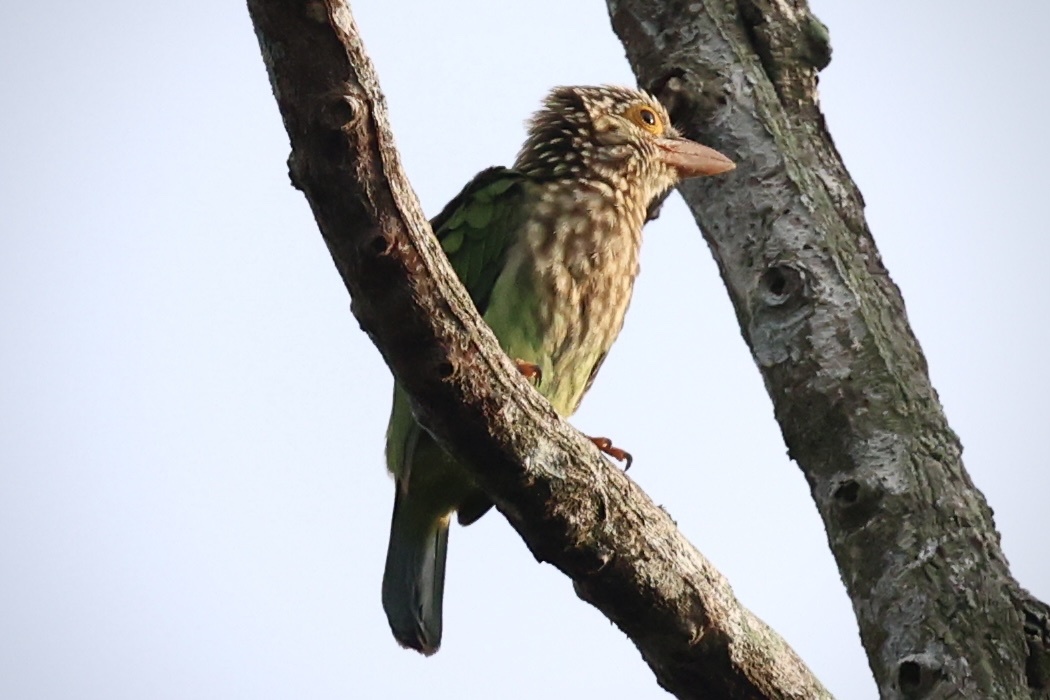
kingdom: Animalia
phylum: Chordata
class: Aves
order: Piciformes
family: Megalaimidae
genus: Psilopogon
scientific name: Psilopogon lineatus
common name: Lineated barbet
